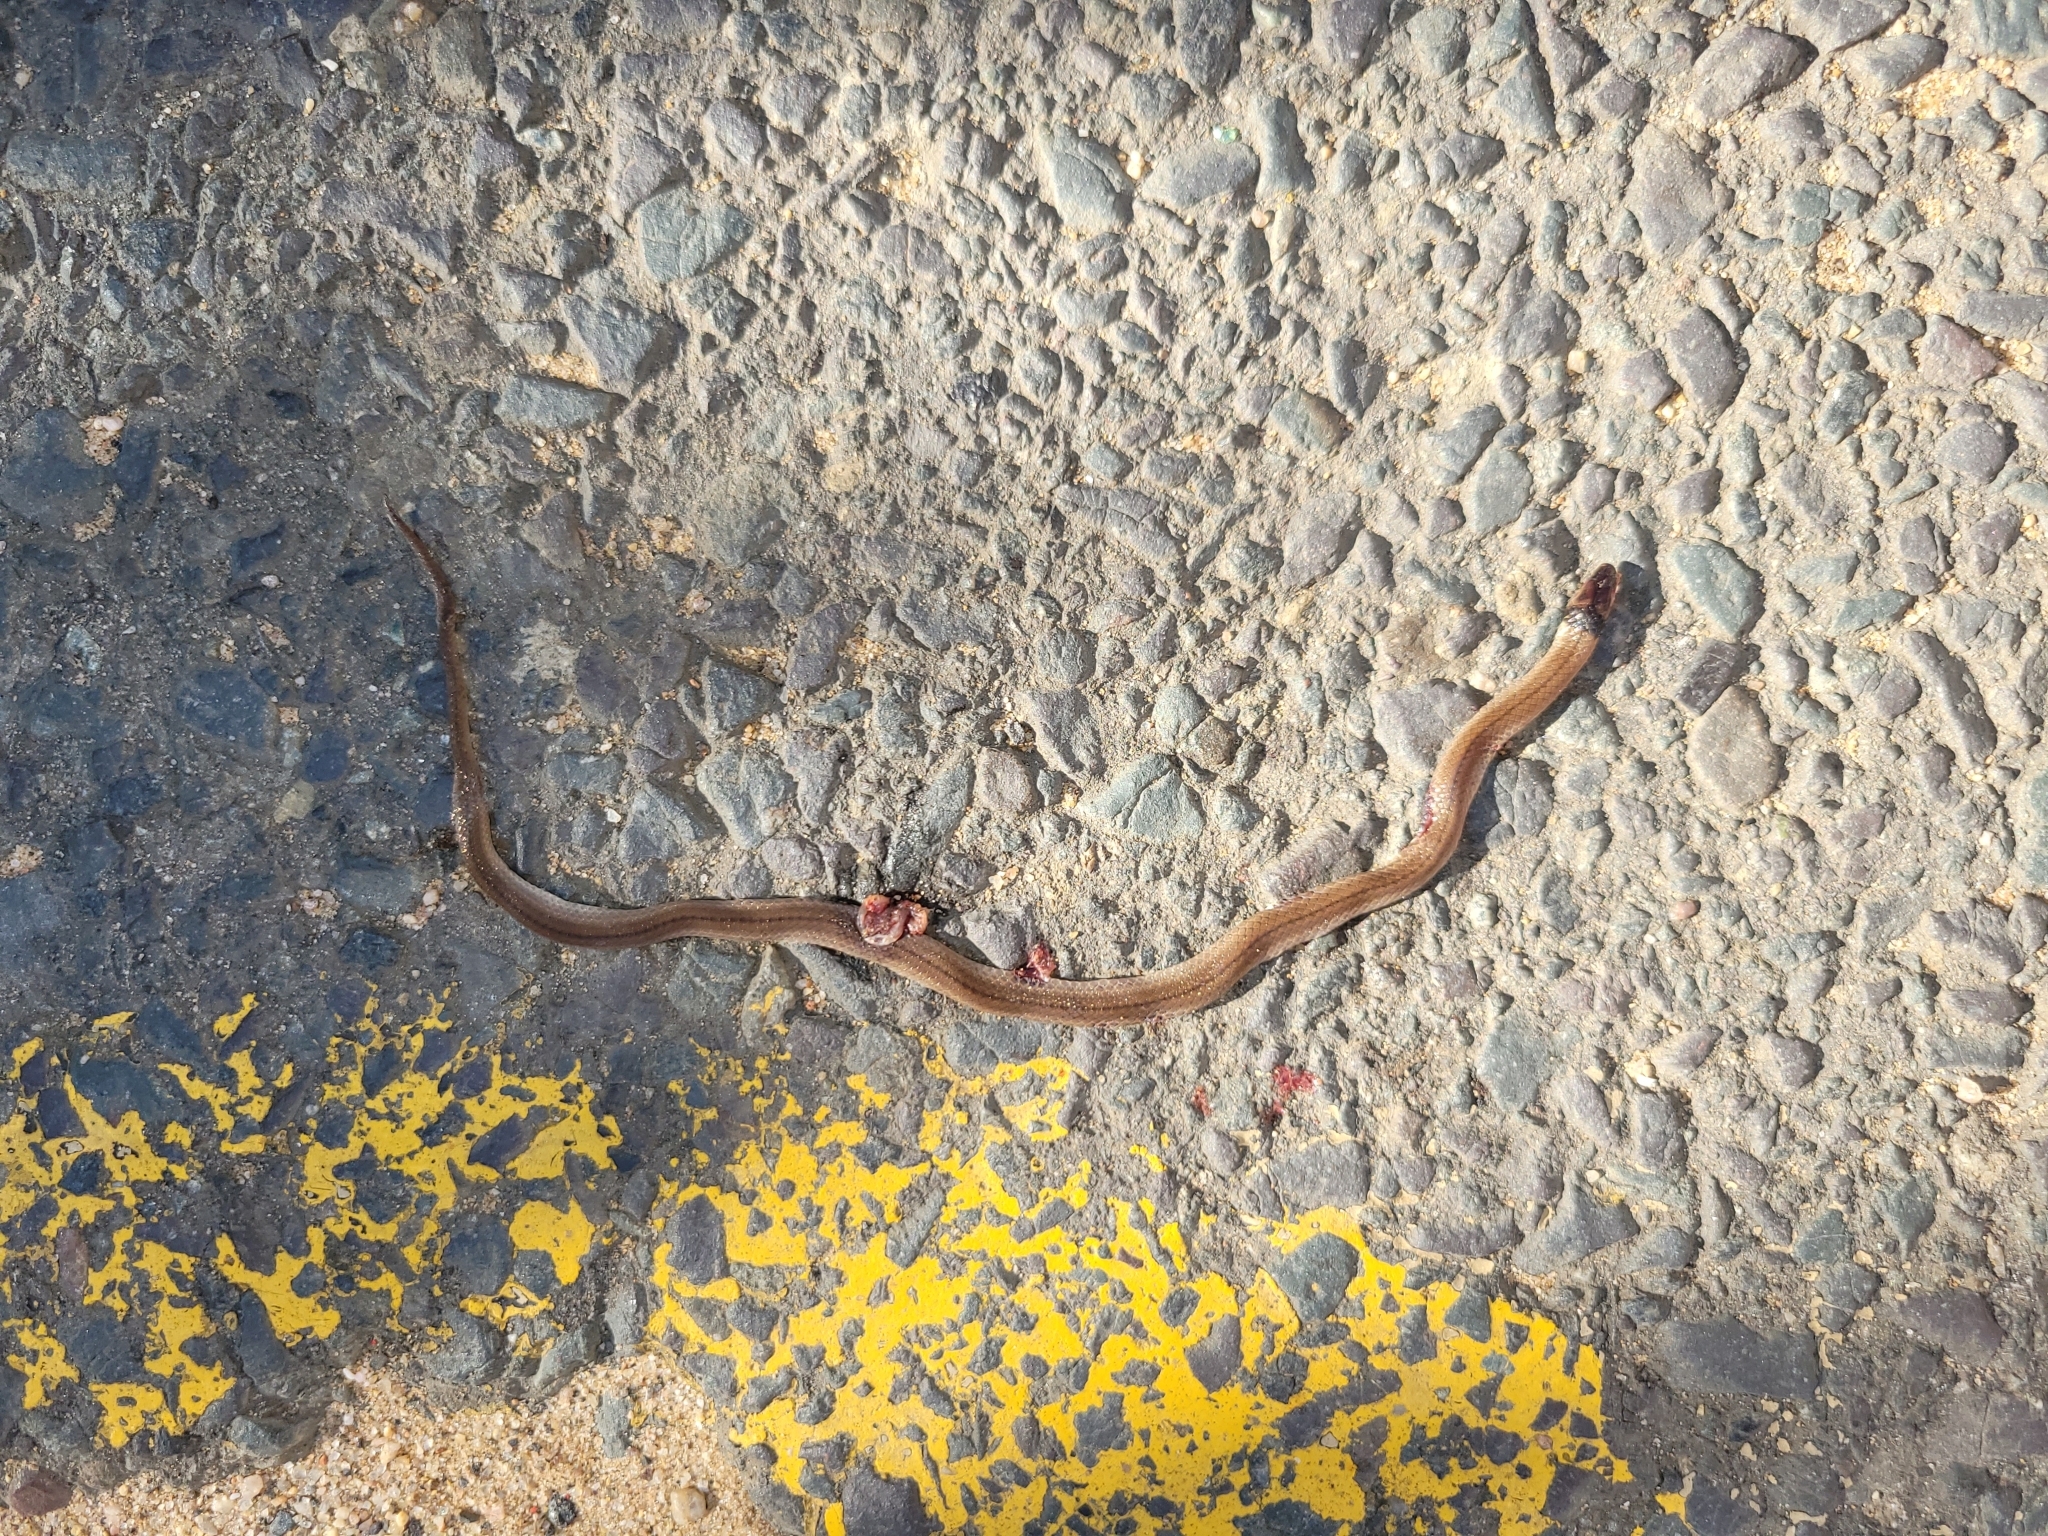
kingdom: Animalia
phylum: Chordata
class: Squamata
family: Atractaspididae
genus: Aparallactus
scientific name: Aparallactus capensis
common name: Cape centipede eater
